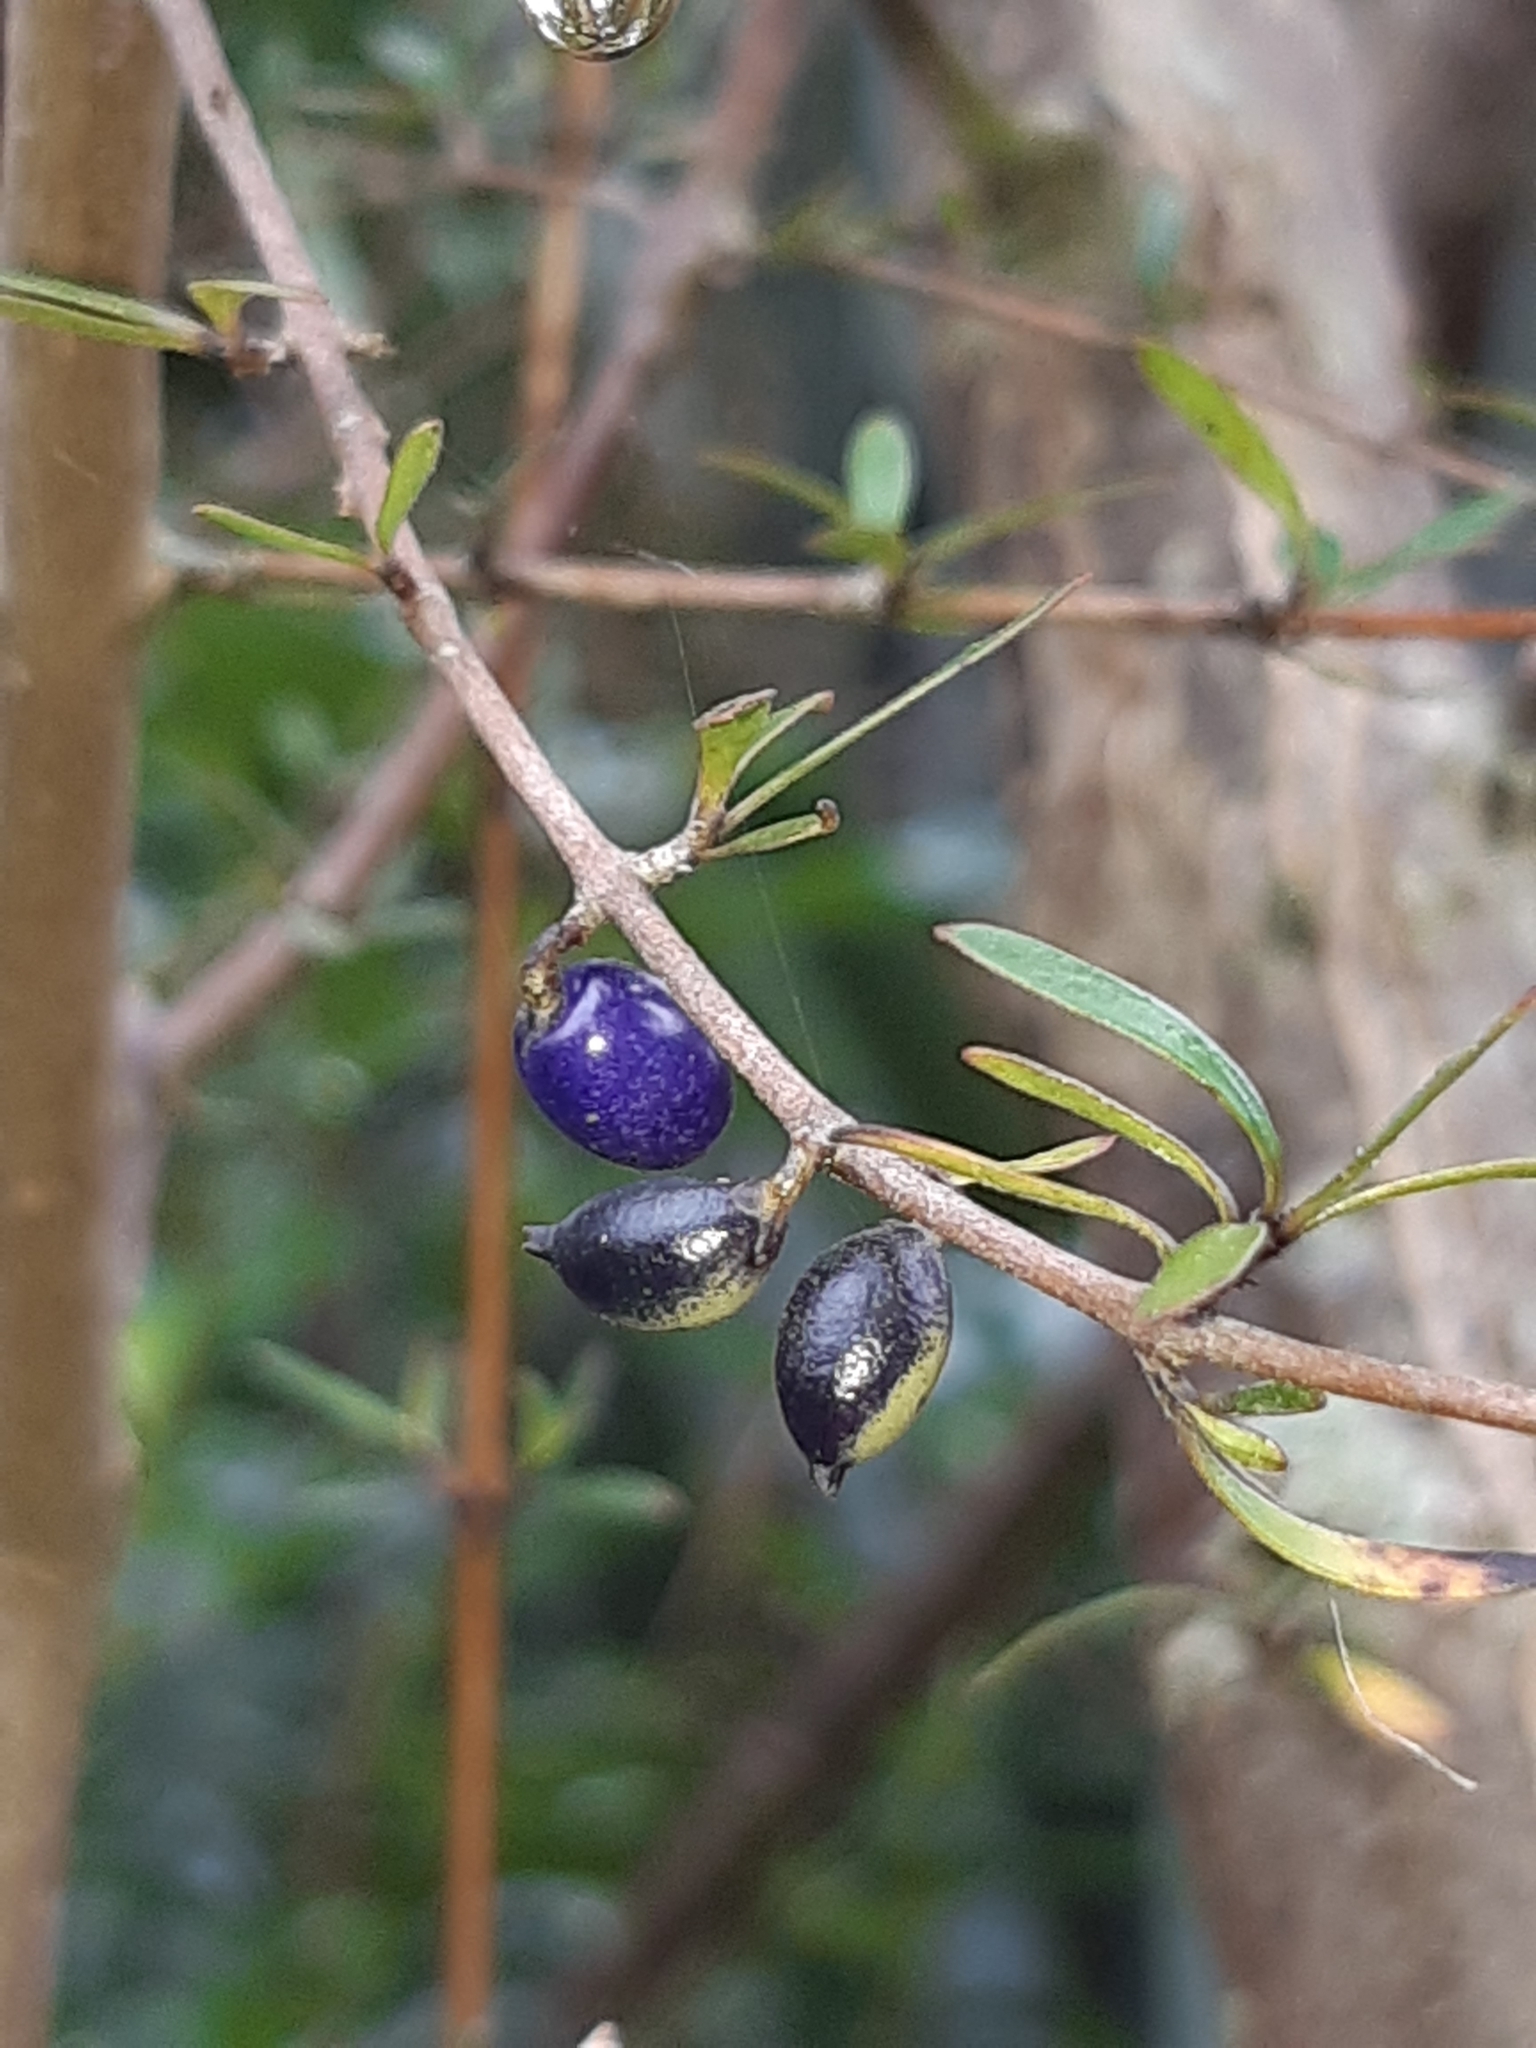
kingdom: Plantae
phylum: Tracheophyta
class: Magnoliopsida
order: Gentianales
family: Rubiaceae
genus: Coprosma
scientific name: Coprosma propinqua
